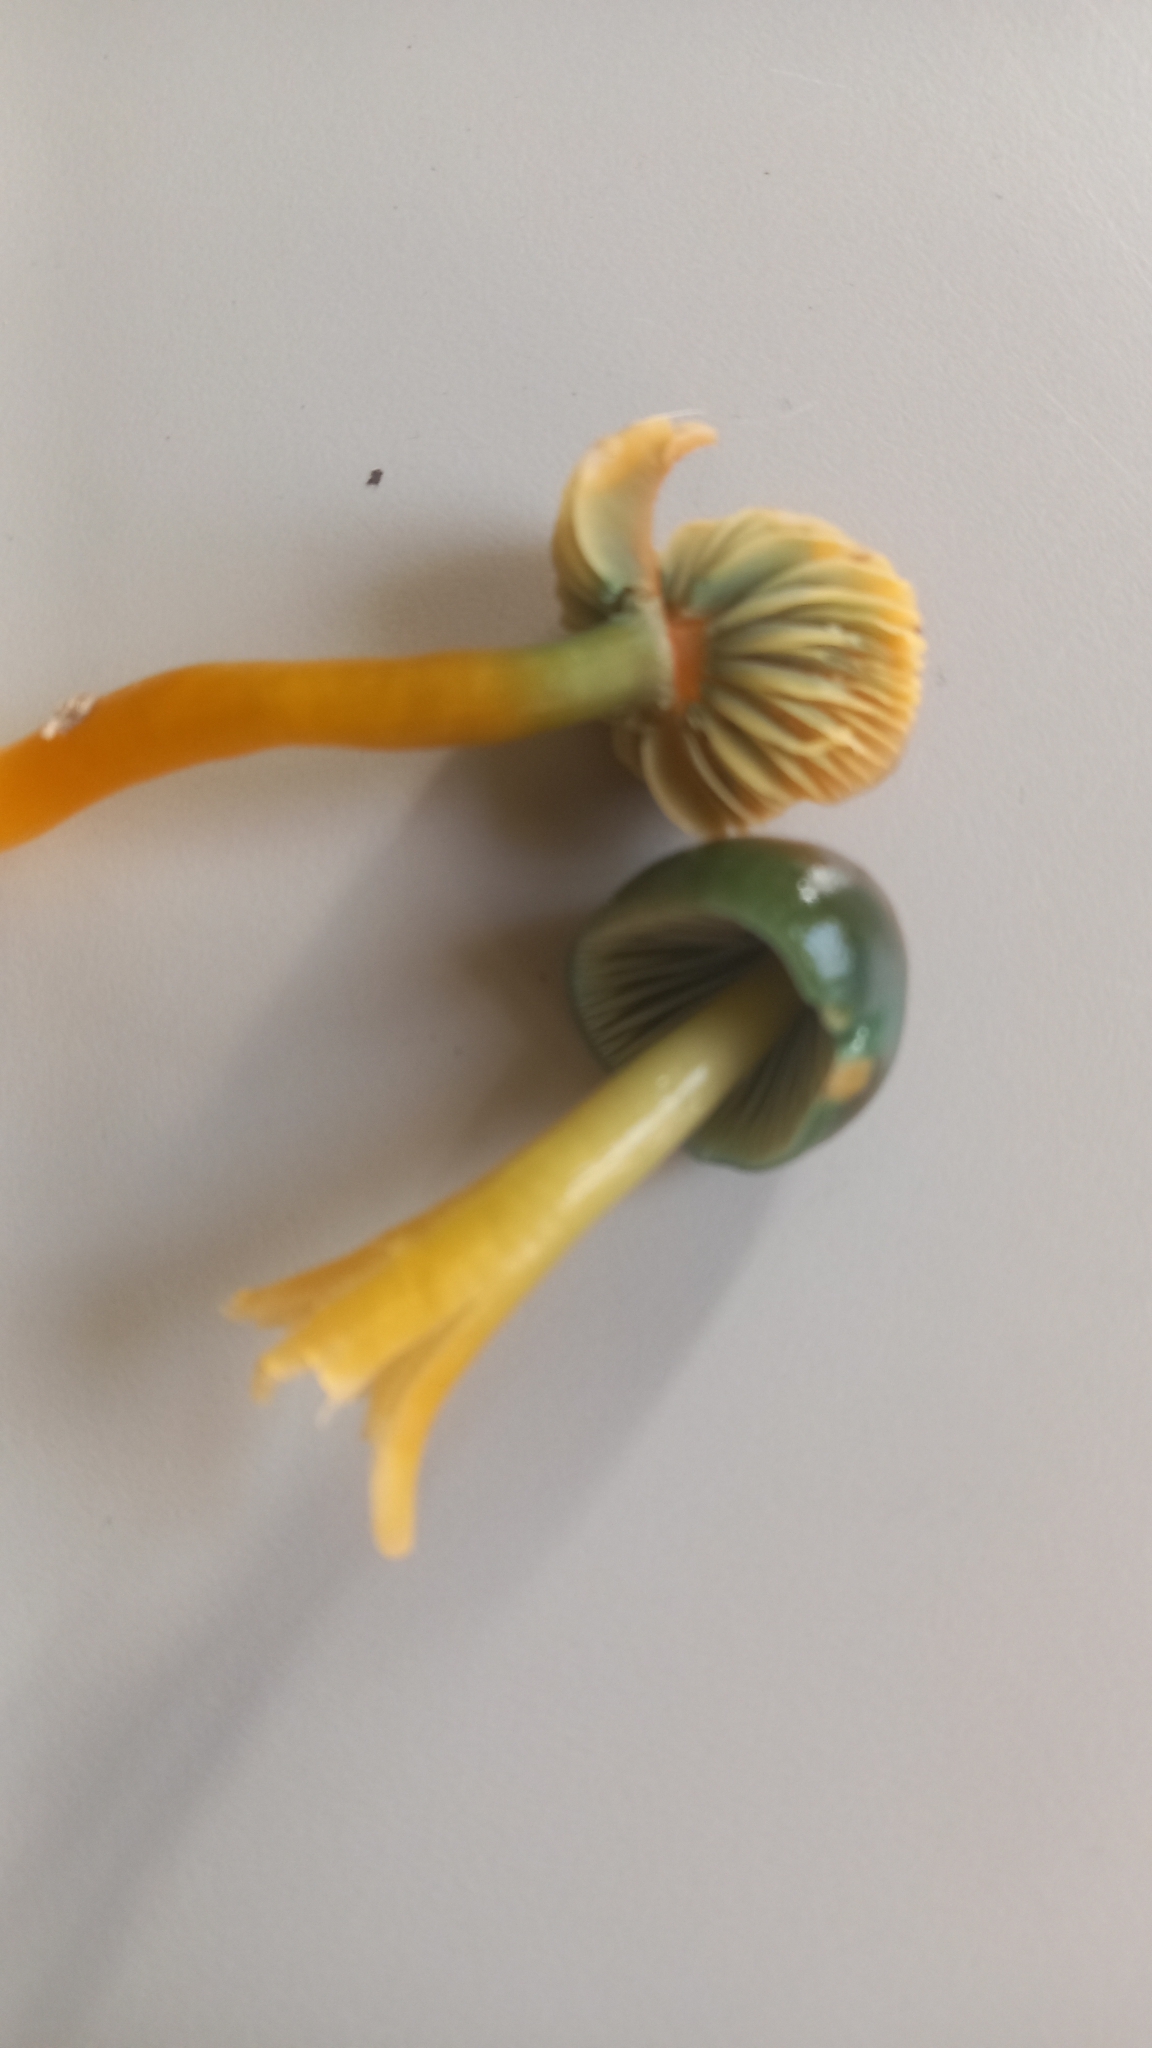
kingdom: Fungi
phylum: Basidiomycota
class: Agaricomycetes
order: Agaricales
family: Hygrophoraceae
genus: Gliophorus
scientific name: Gliophorus psittacinus
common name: Parrot wax-cap
